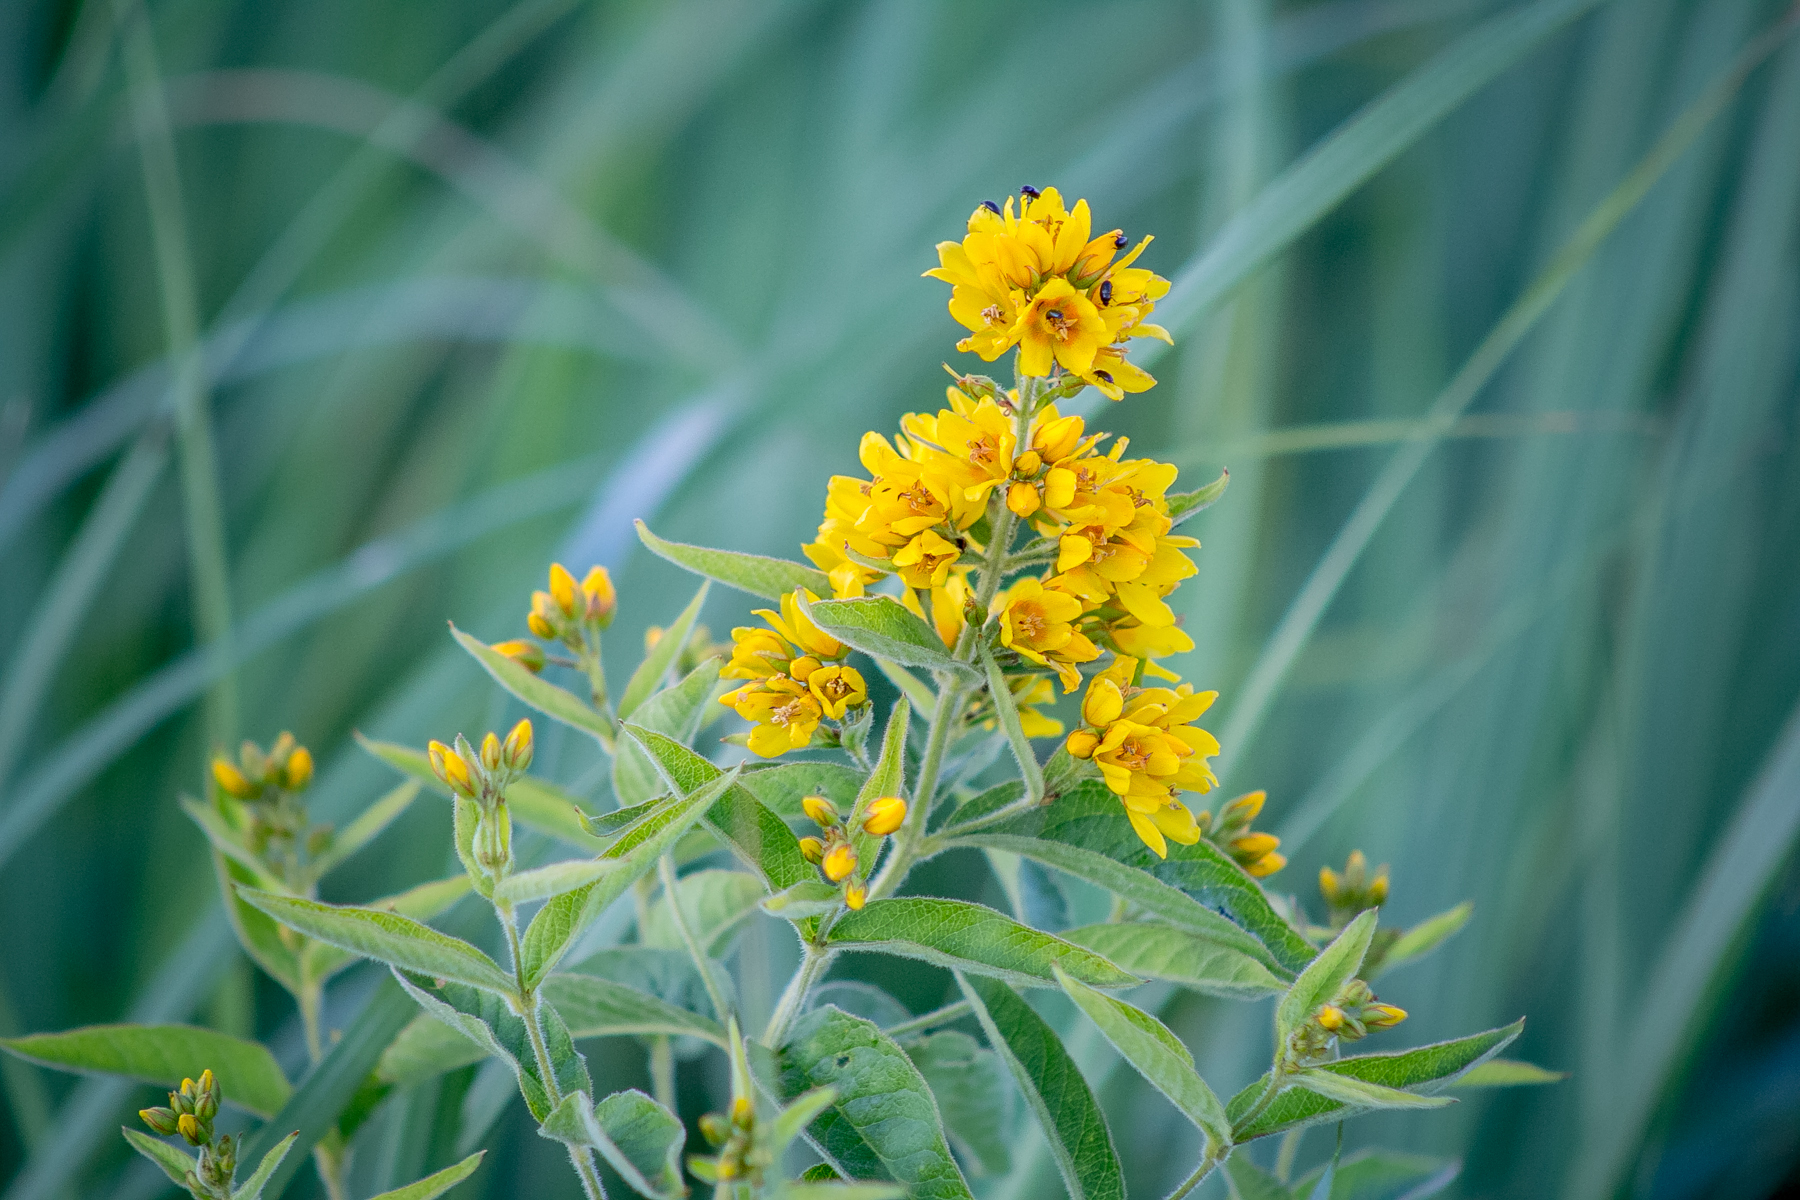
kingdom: Plantae
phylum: Tracheophyta
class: Magnoliopsida
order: Ericales
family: Primulaceae
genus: Lysimachia
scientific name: Lysimachia vulgaris
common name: Yellow loosestrife
